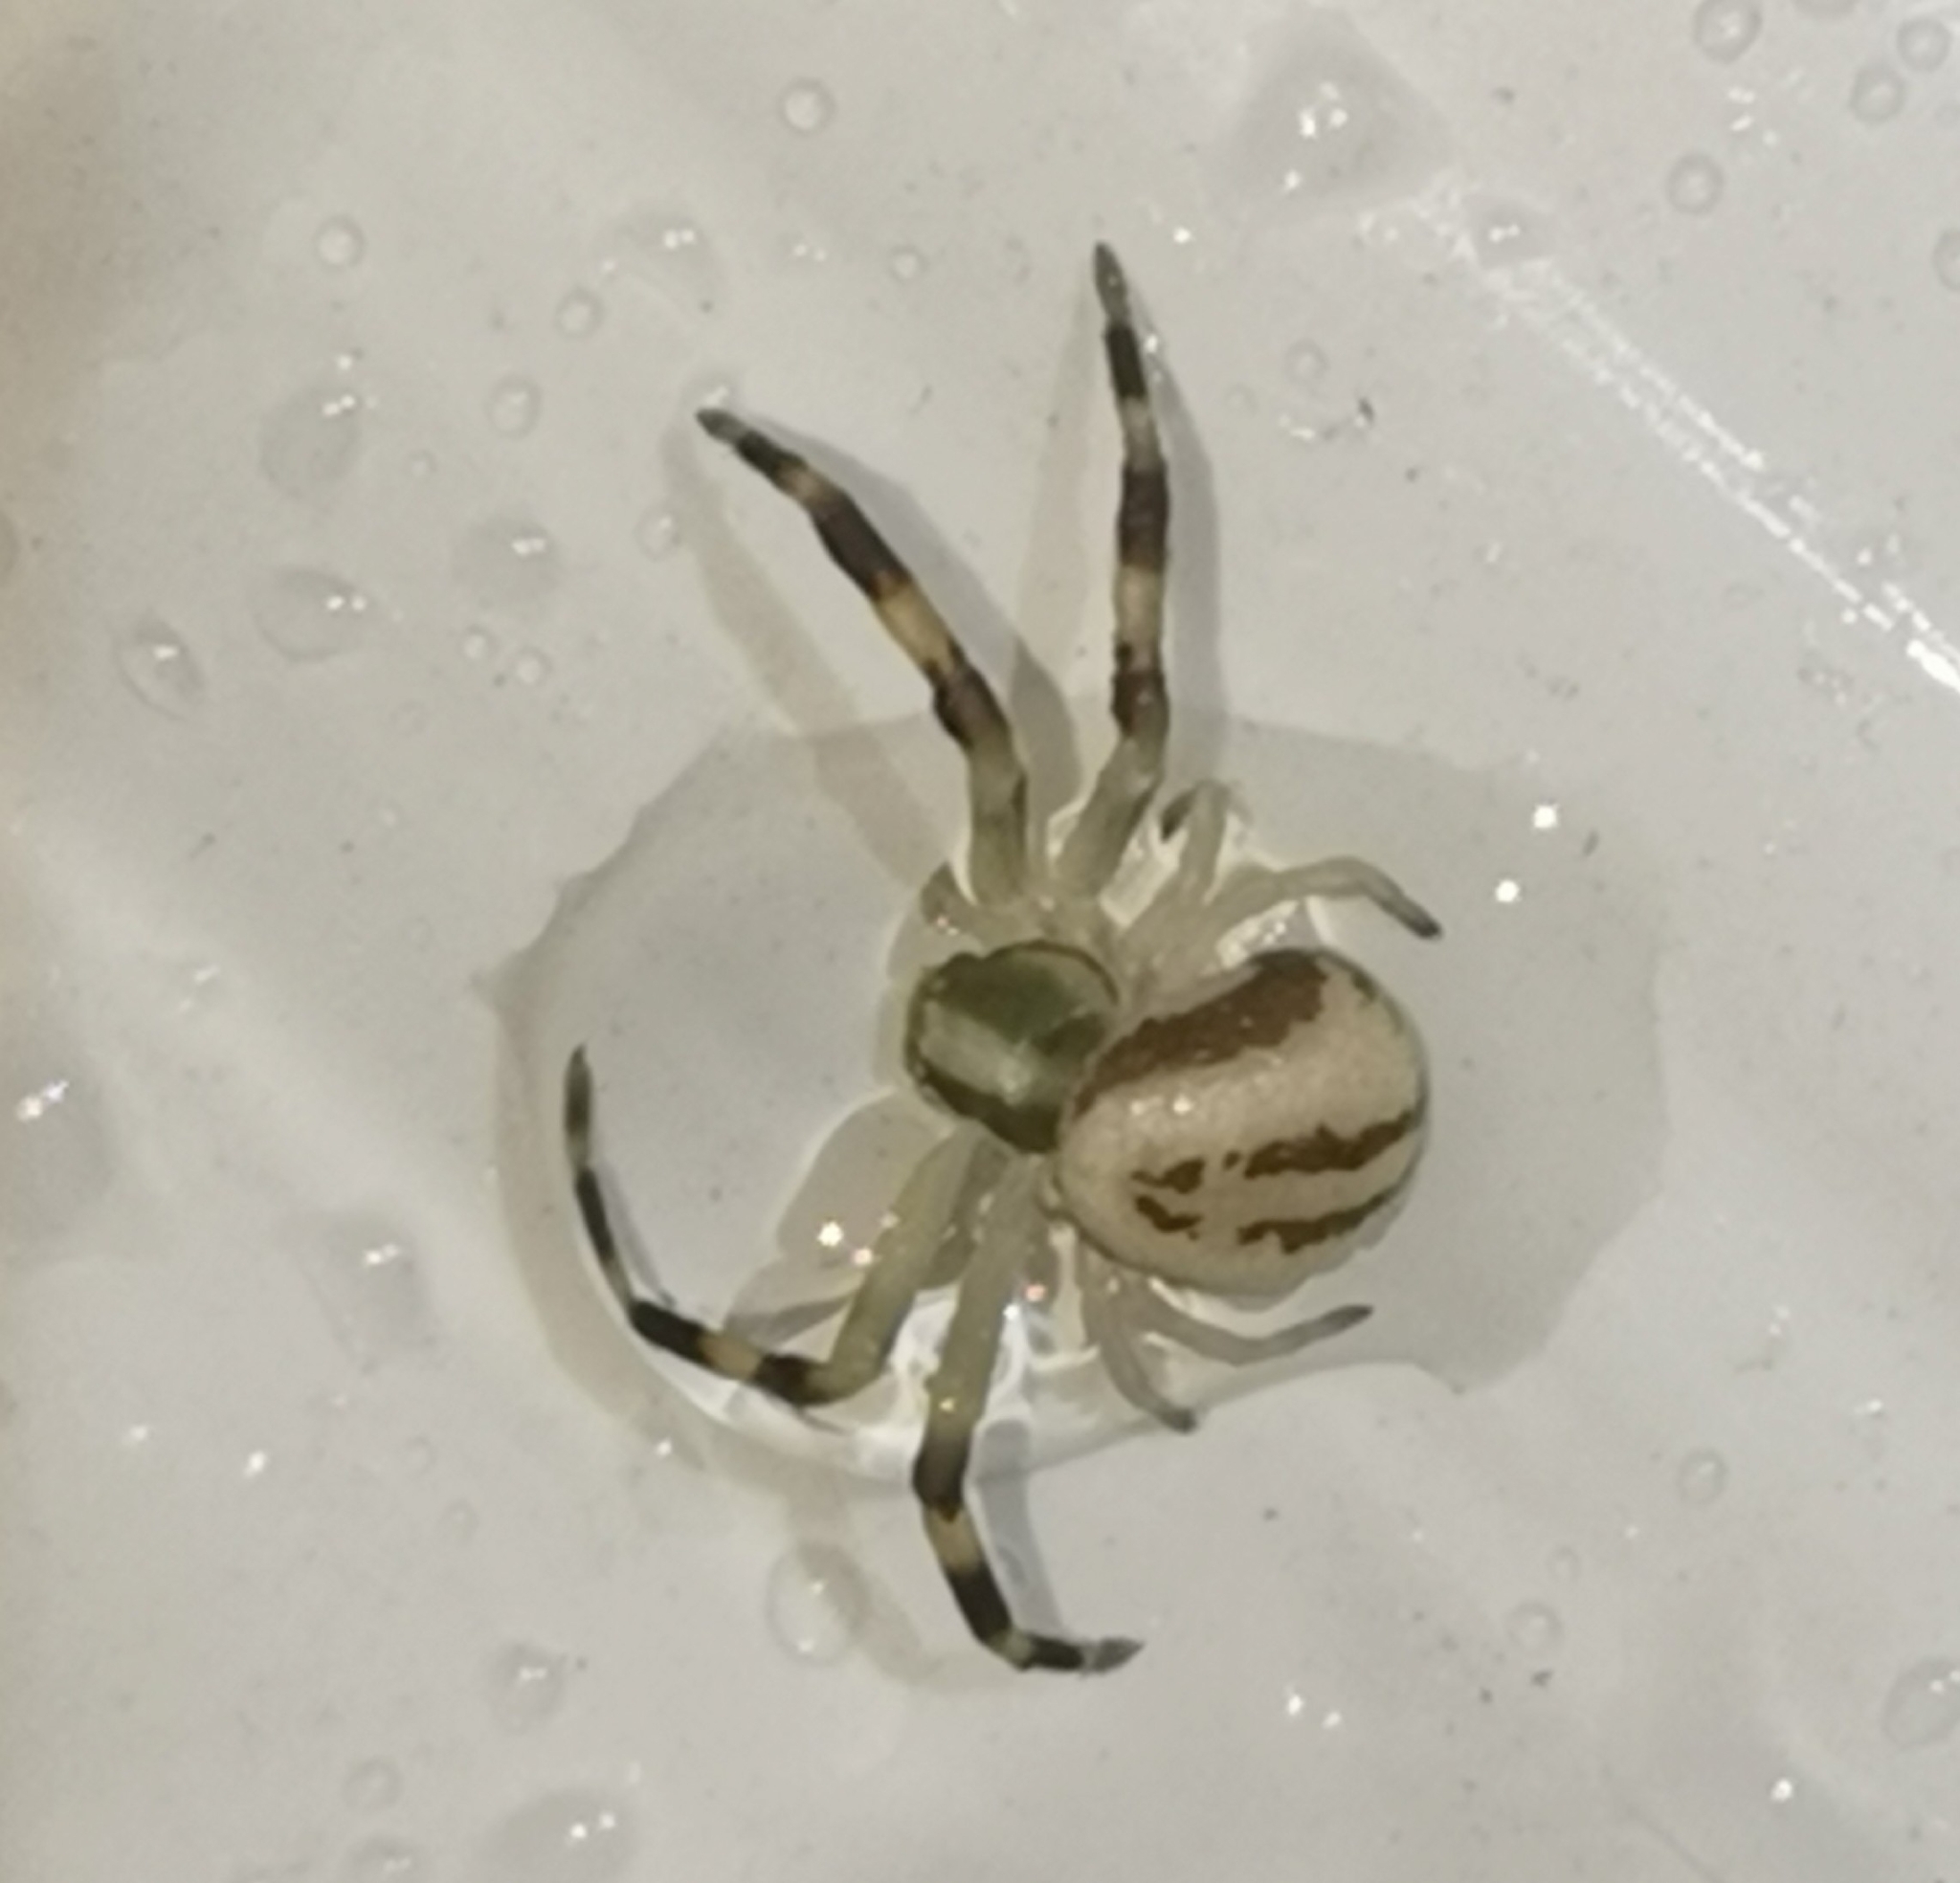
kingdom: Animalia
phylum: Arthropoda
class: Arachnida
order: Araneae
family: Thomisidae
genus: Misumena
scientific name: Misumena vatia
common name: Goldenrod crab spider
